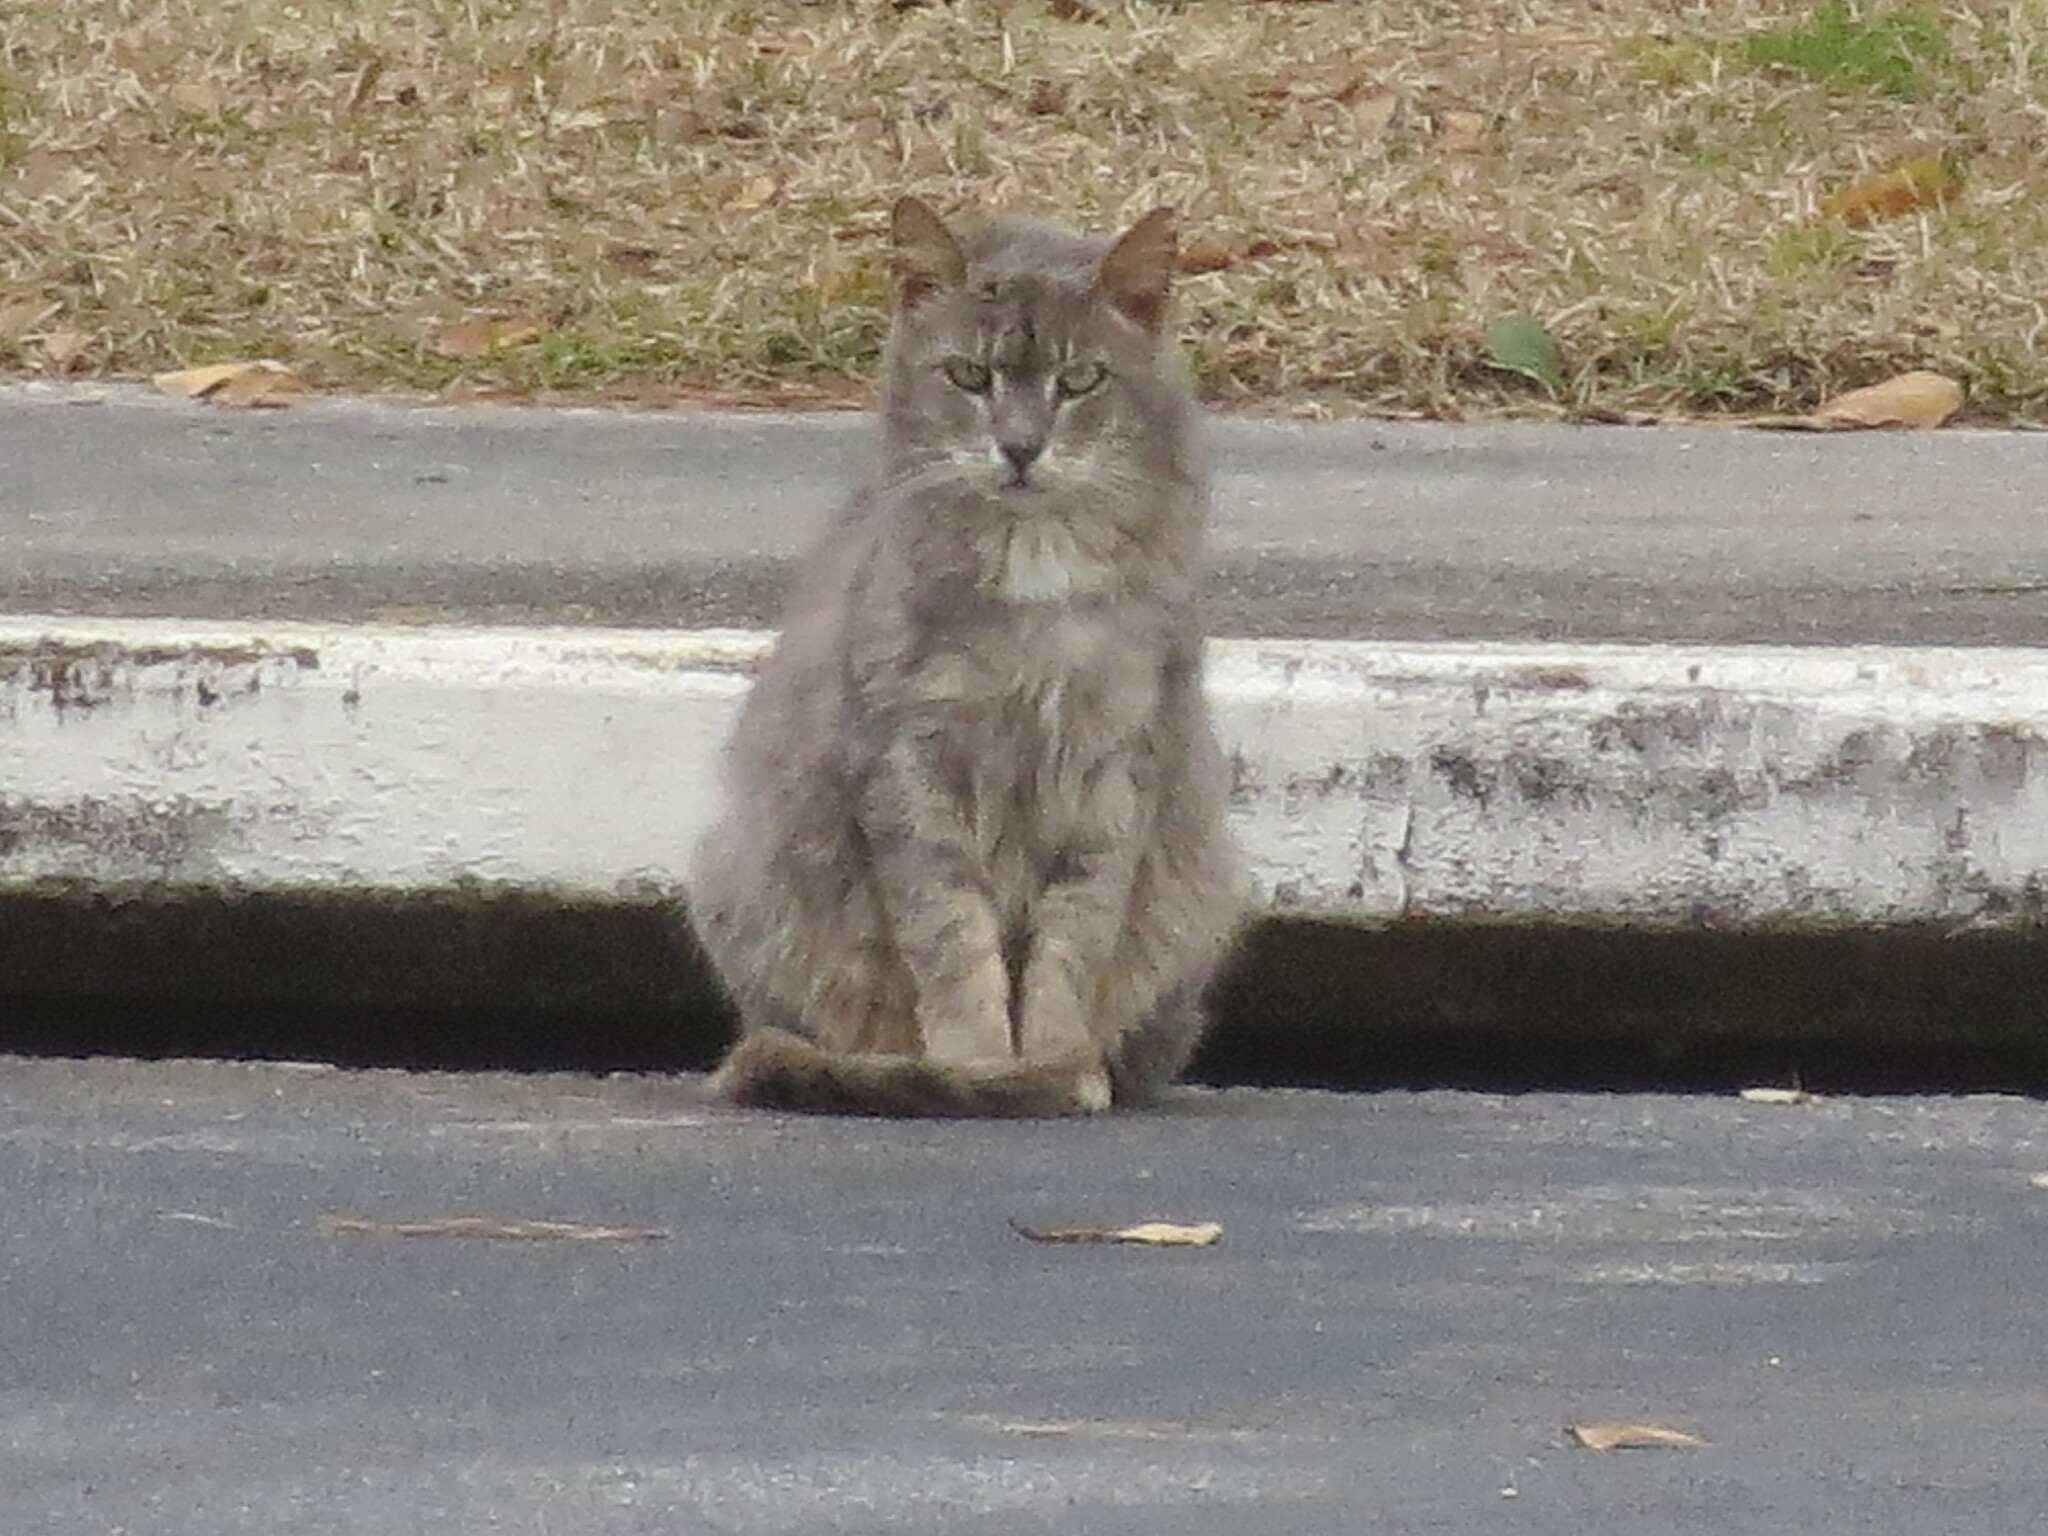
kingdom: Animalia
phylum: Chordata
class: Mammalia
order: Carnivora
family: Felidae
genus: Felis
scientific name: Felis catus
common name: Domestic cat
